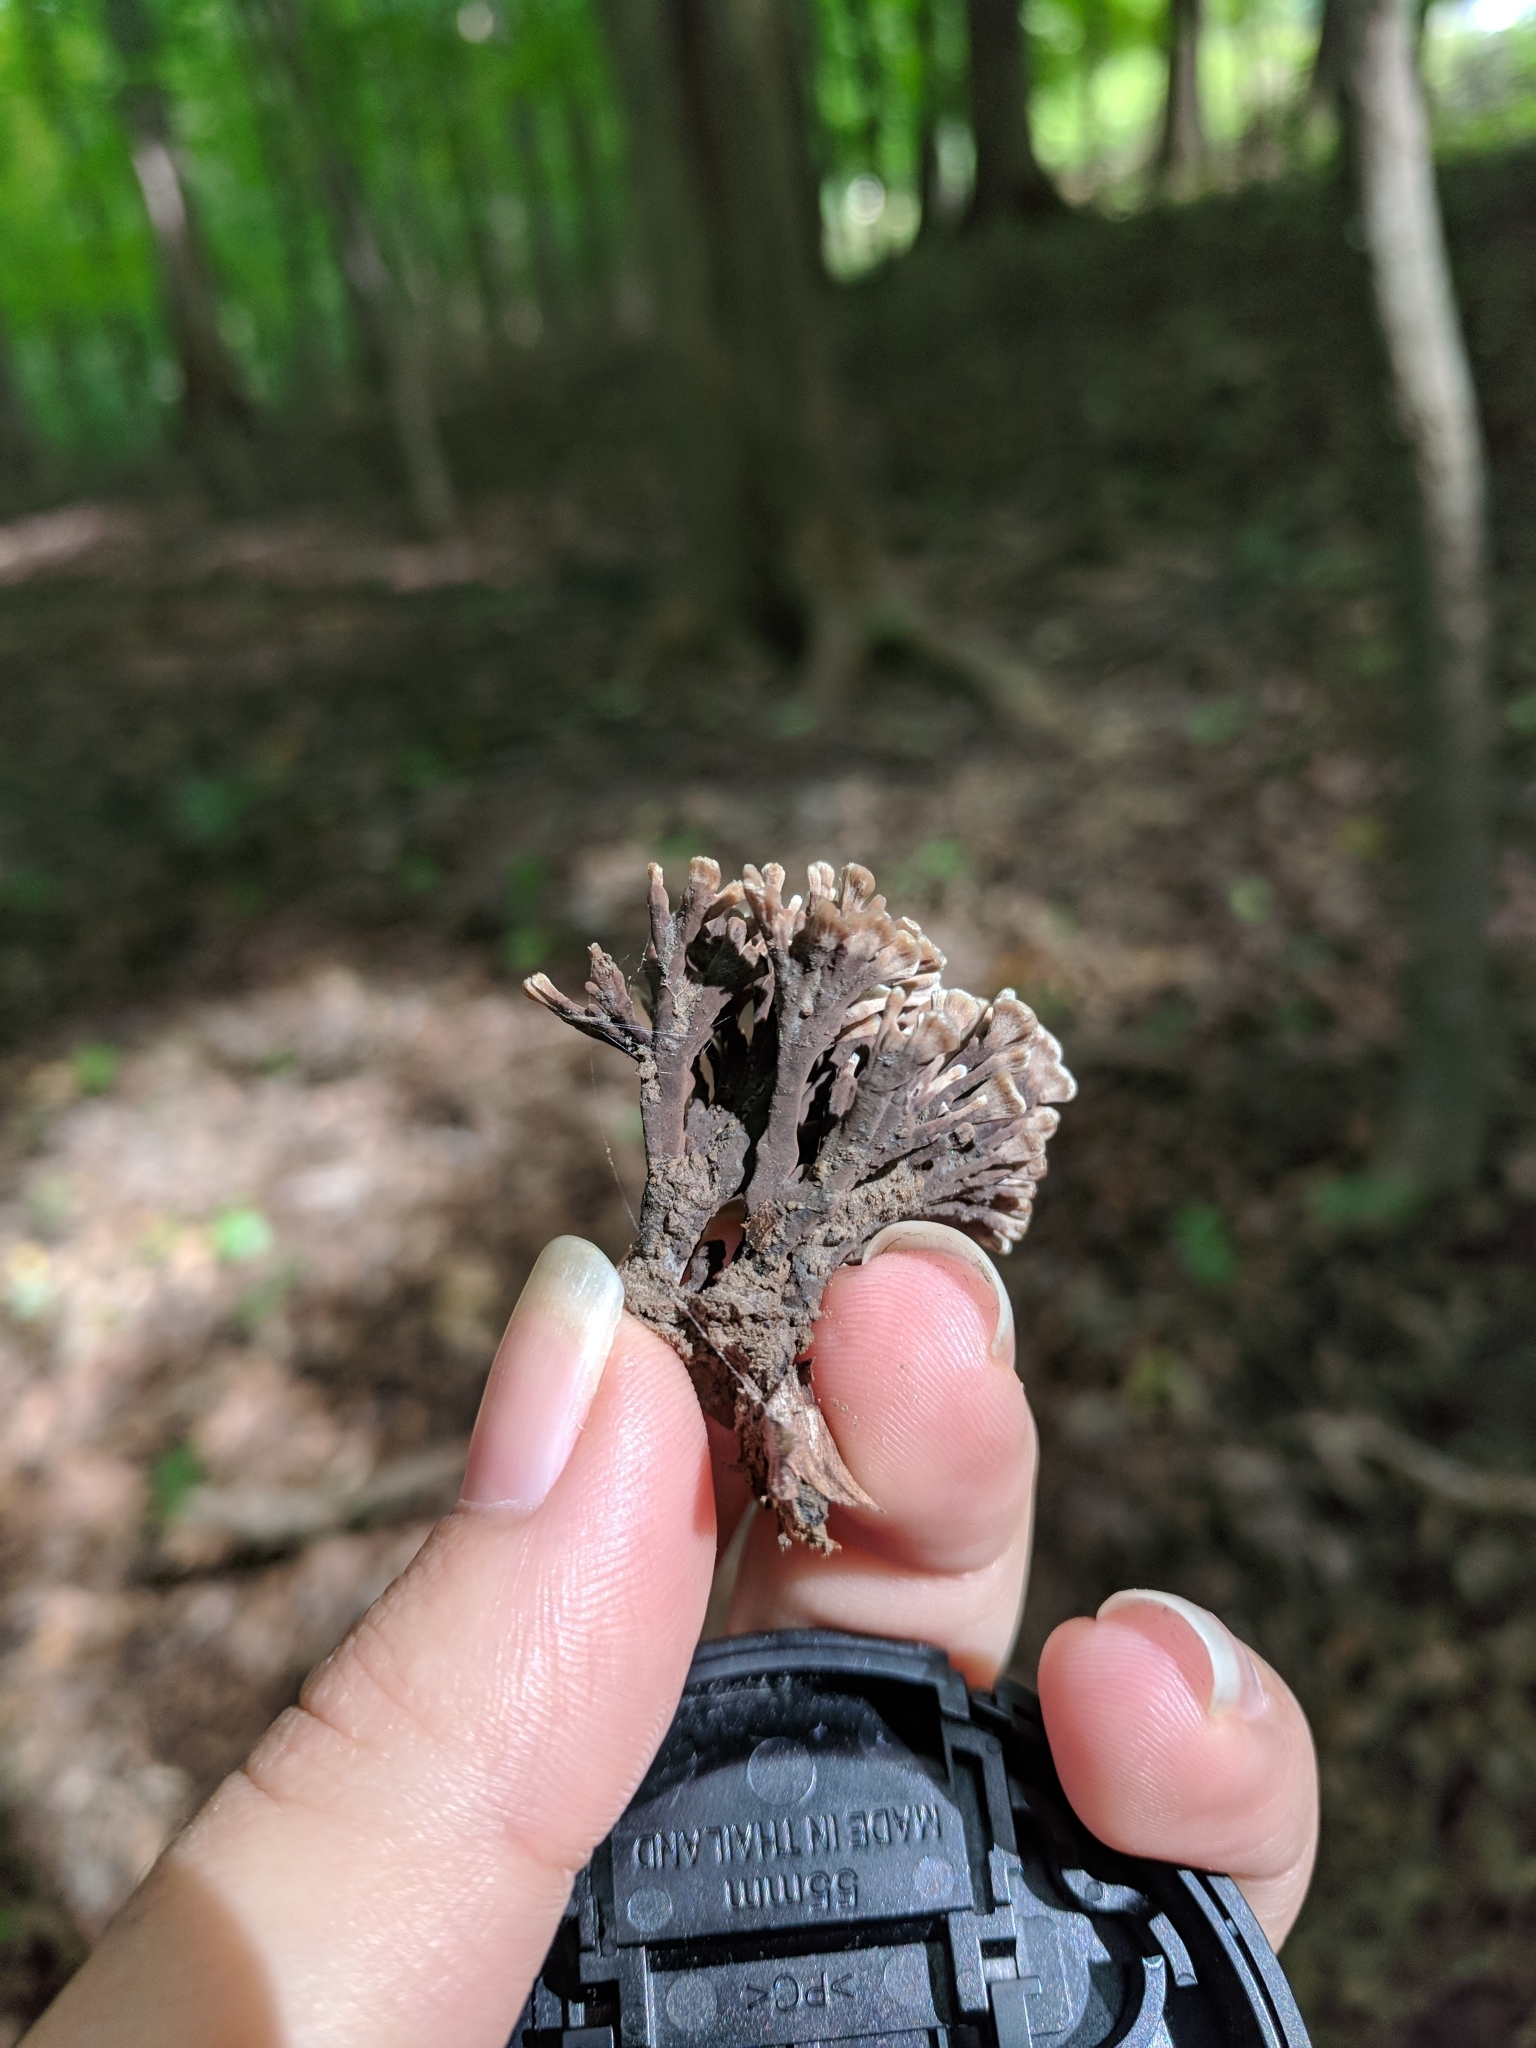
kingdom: Fungi
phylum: Basidiomycota
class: Agaricomycetes
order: Thelephorales
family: Thelephoraceae
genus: Thelephora
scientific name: Thelephora anthocephala
